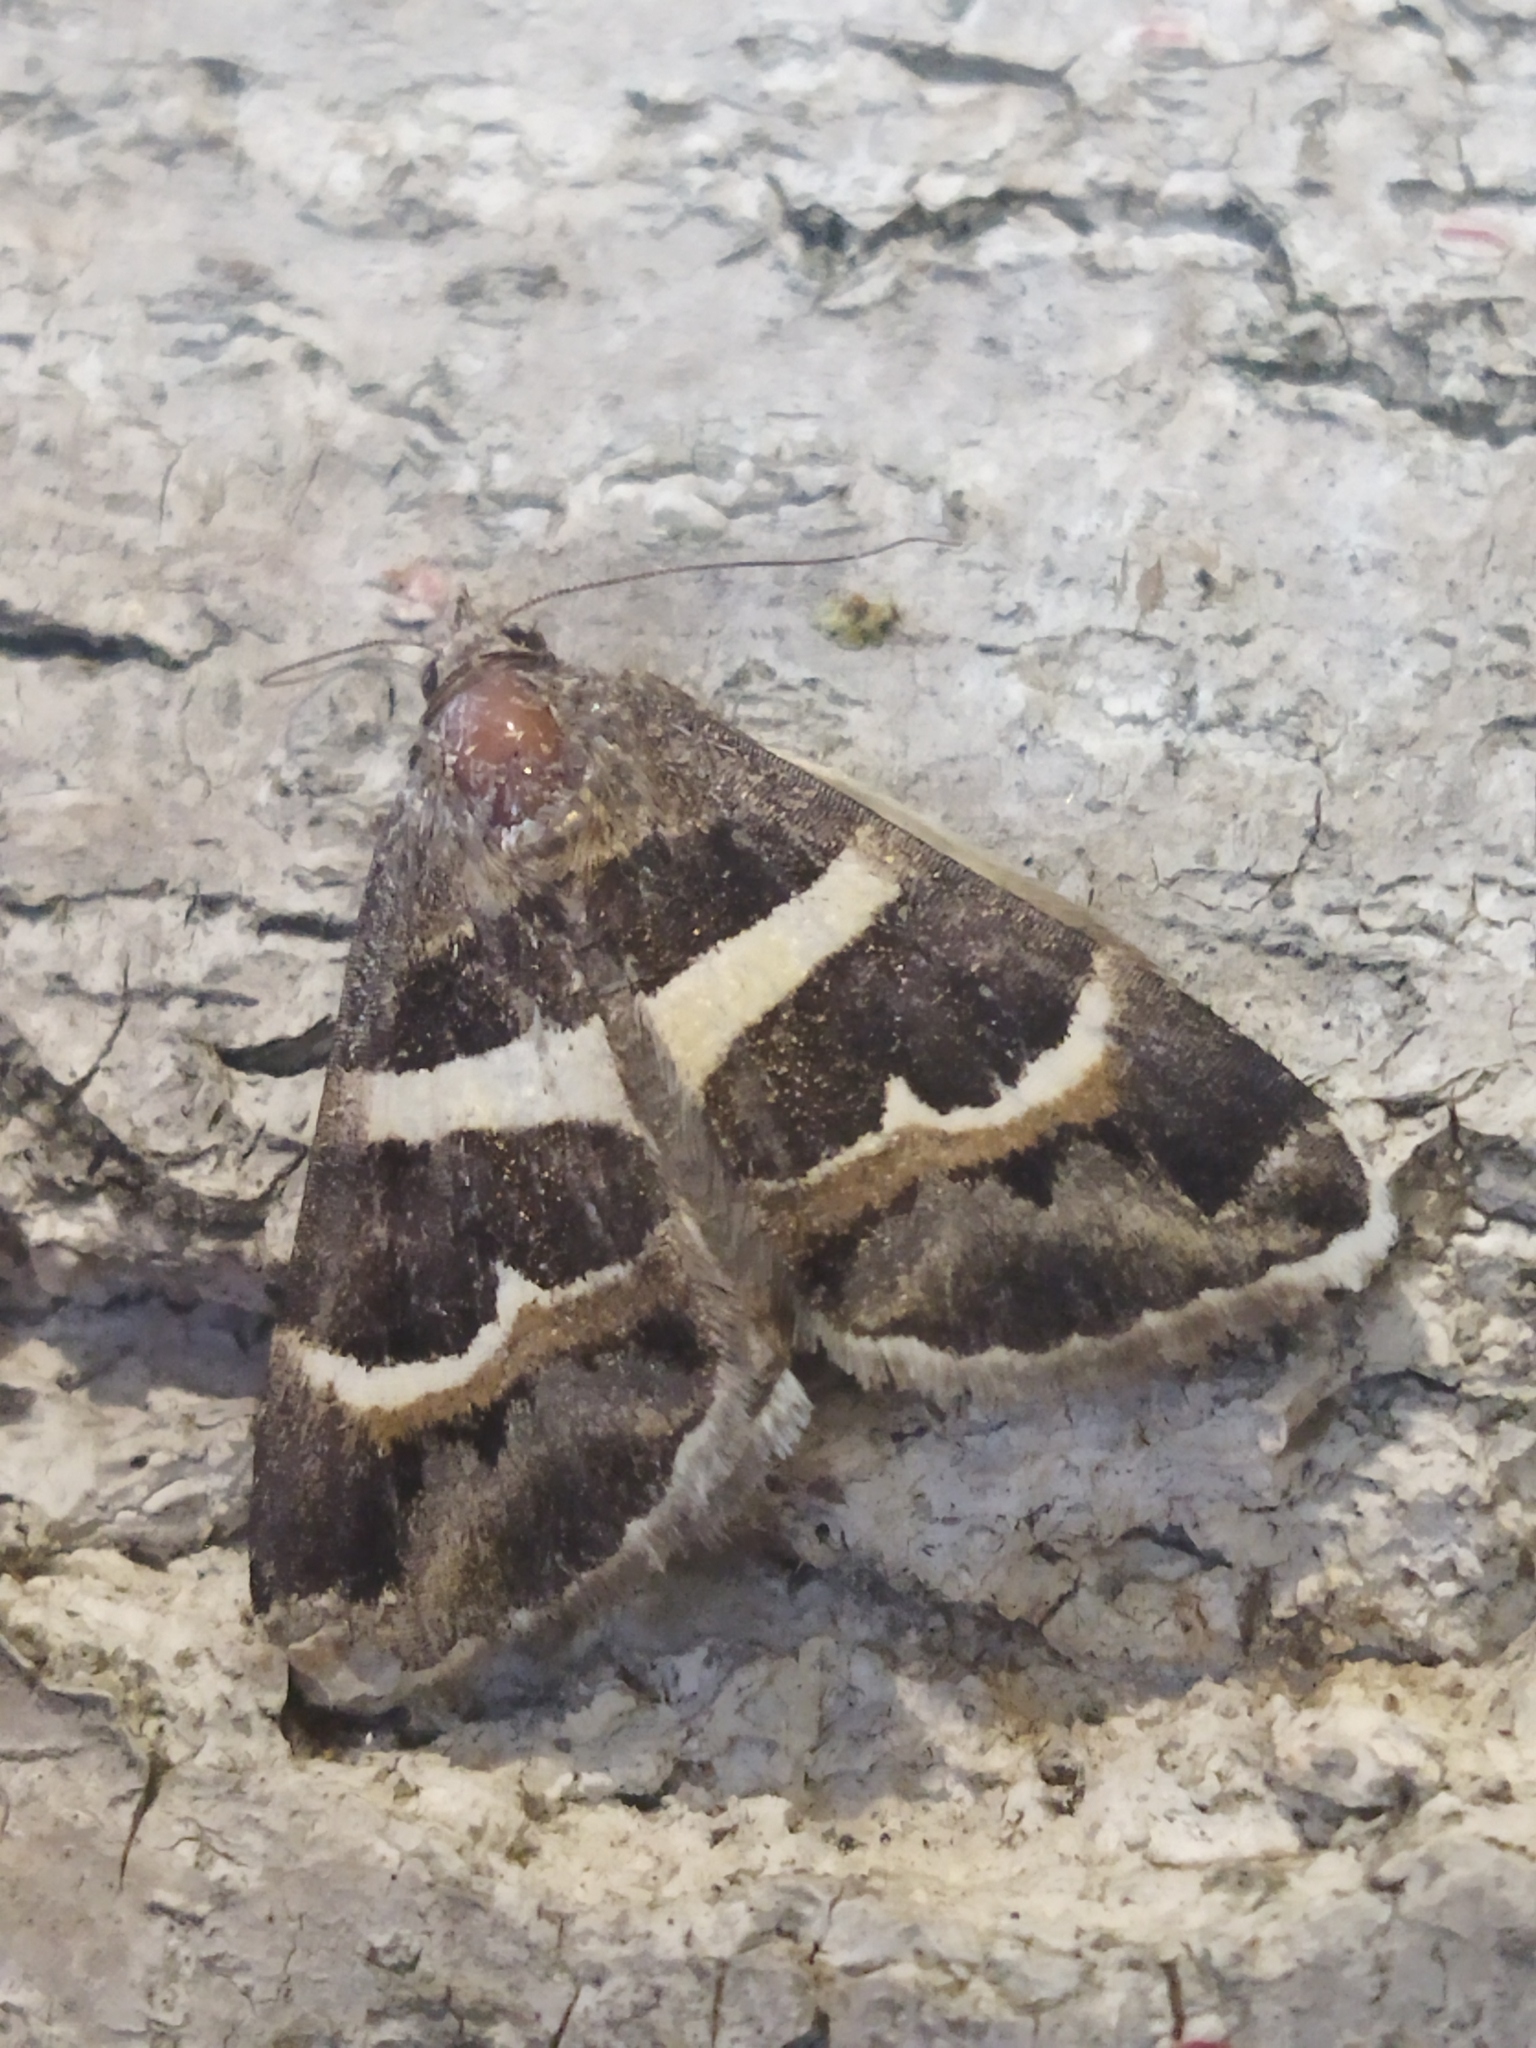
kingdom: Animalia
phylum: Arthropoda
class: Insecta
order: Lepidoptera
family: Erebidae
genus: Grammodes
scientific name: Grammodes stolida
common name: Geometrician
